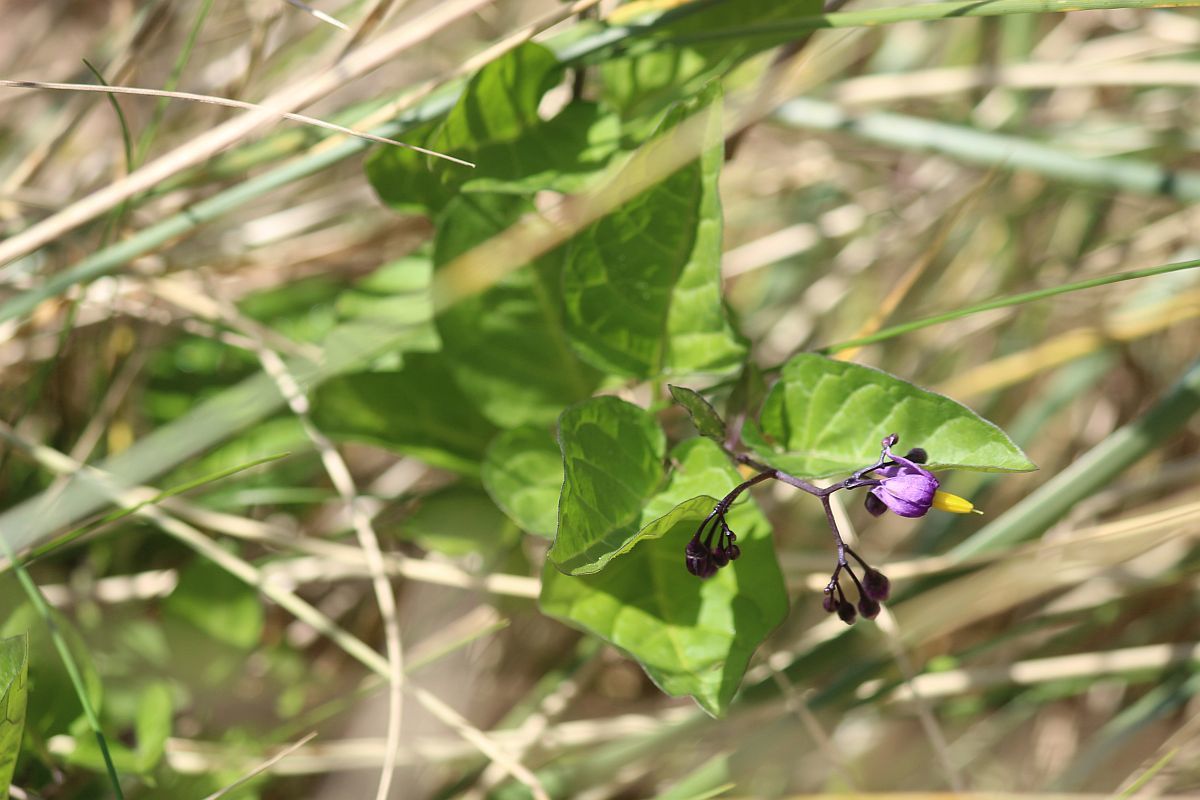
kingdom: Plantae
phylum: Tracheophyta
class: Magnoliopsida
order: Solanales
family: Solanaceae
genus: Solanum
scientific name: Solanum dulcamara
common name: Climbing nightshade
